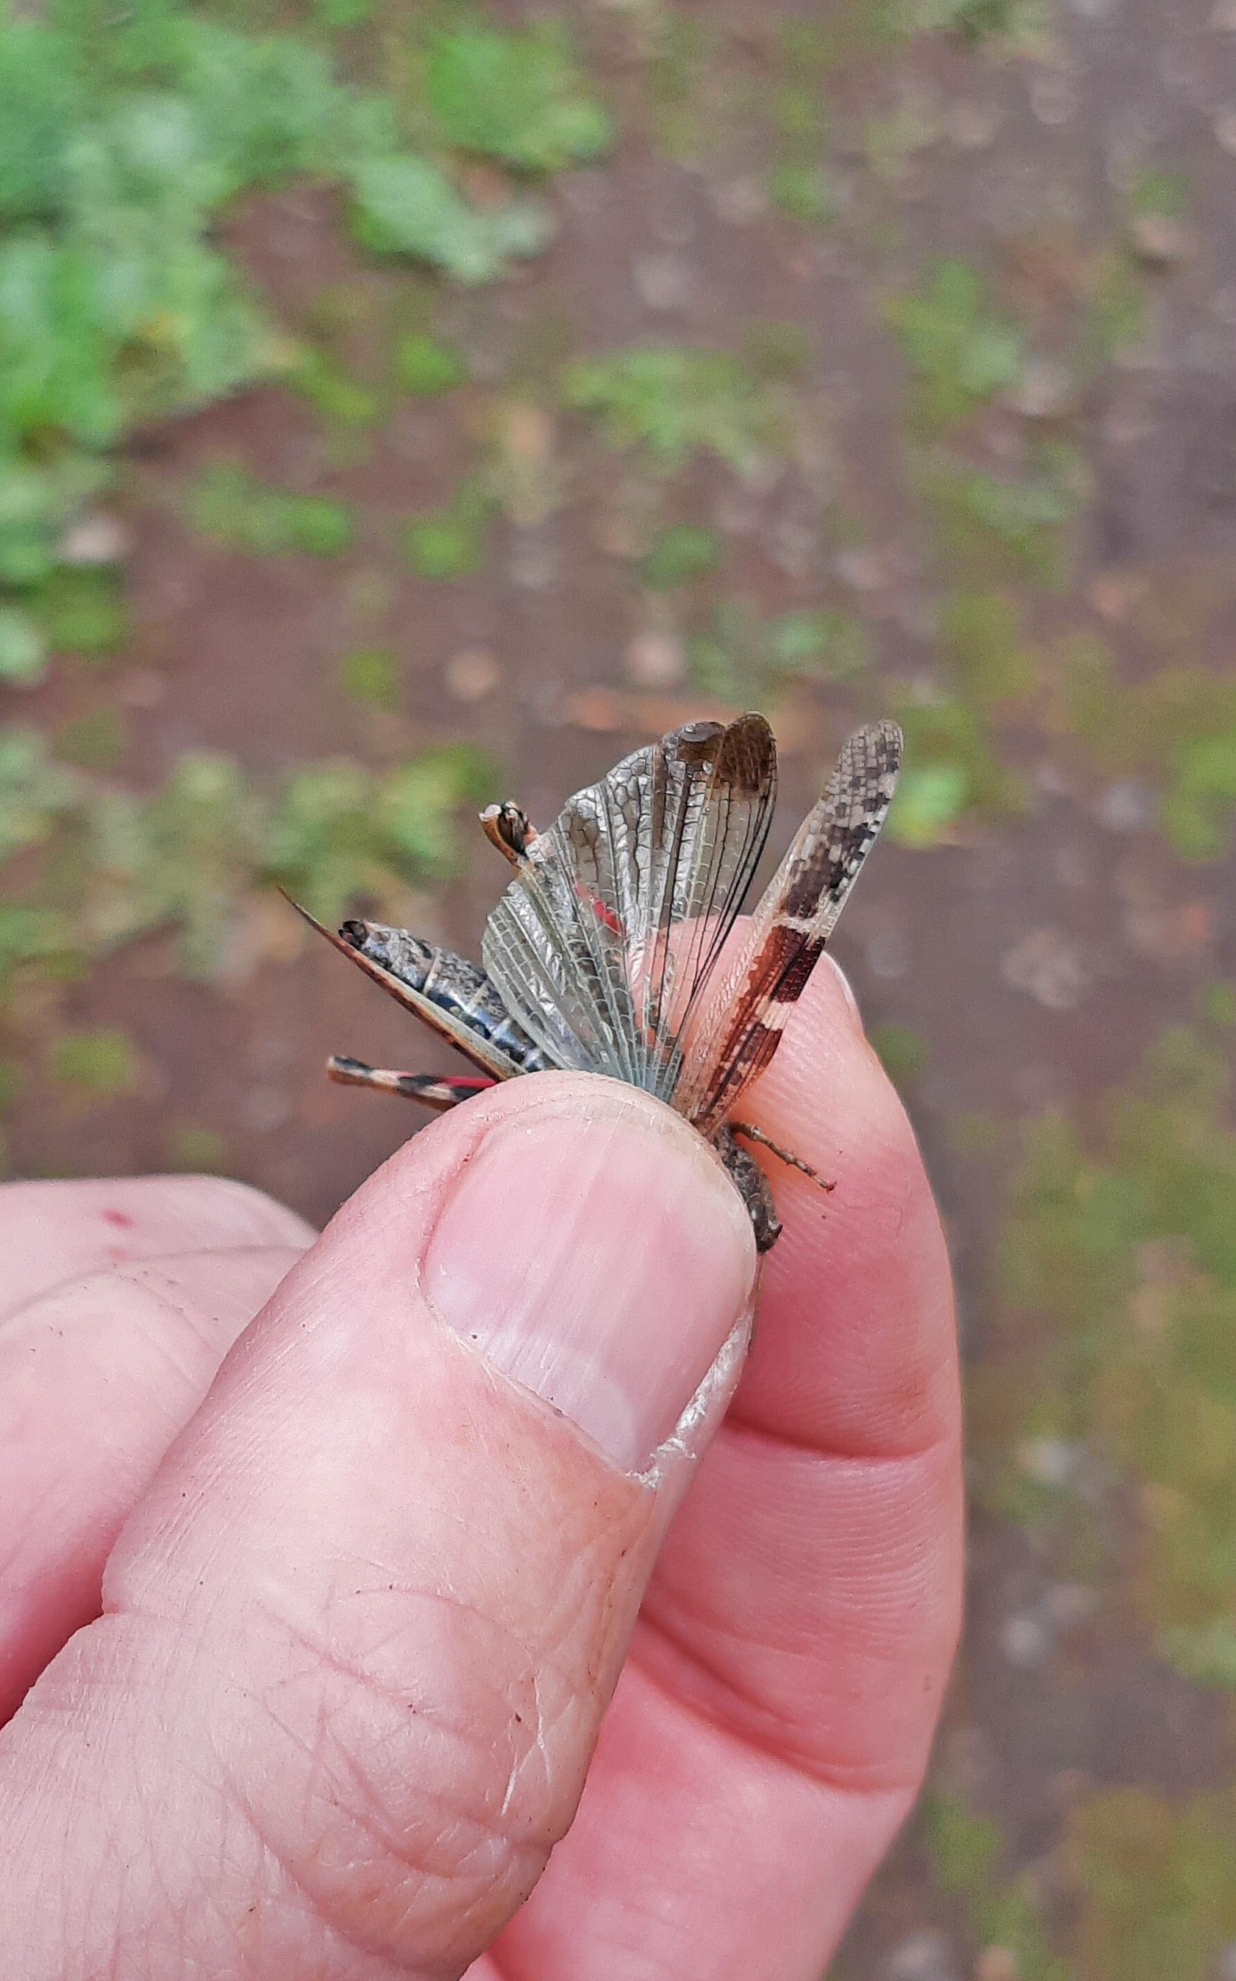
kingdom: Animalia
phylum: Arthropoda
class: Insecta
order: Orthoptera
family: Acrididae
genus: Aiolopus
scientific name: Aiolopus strepens
